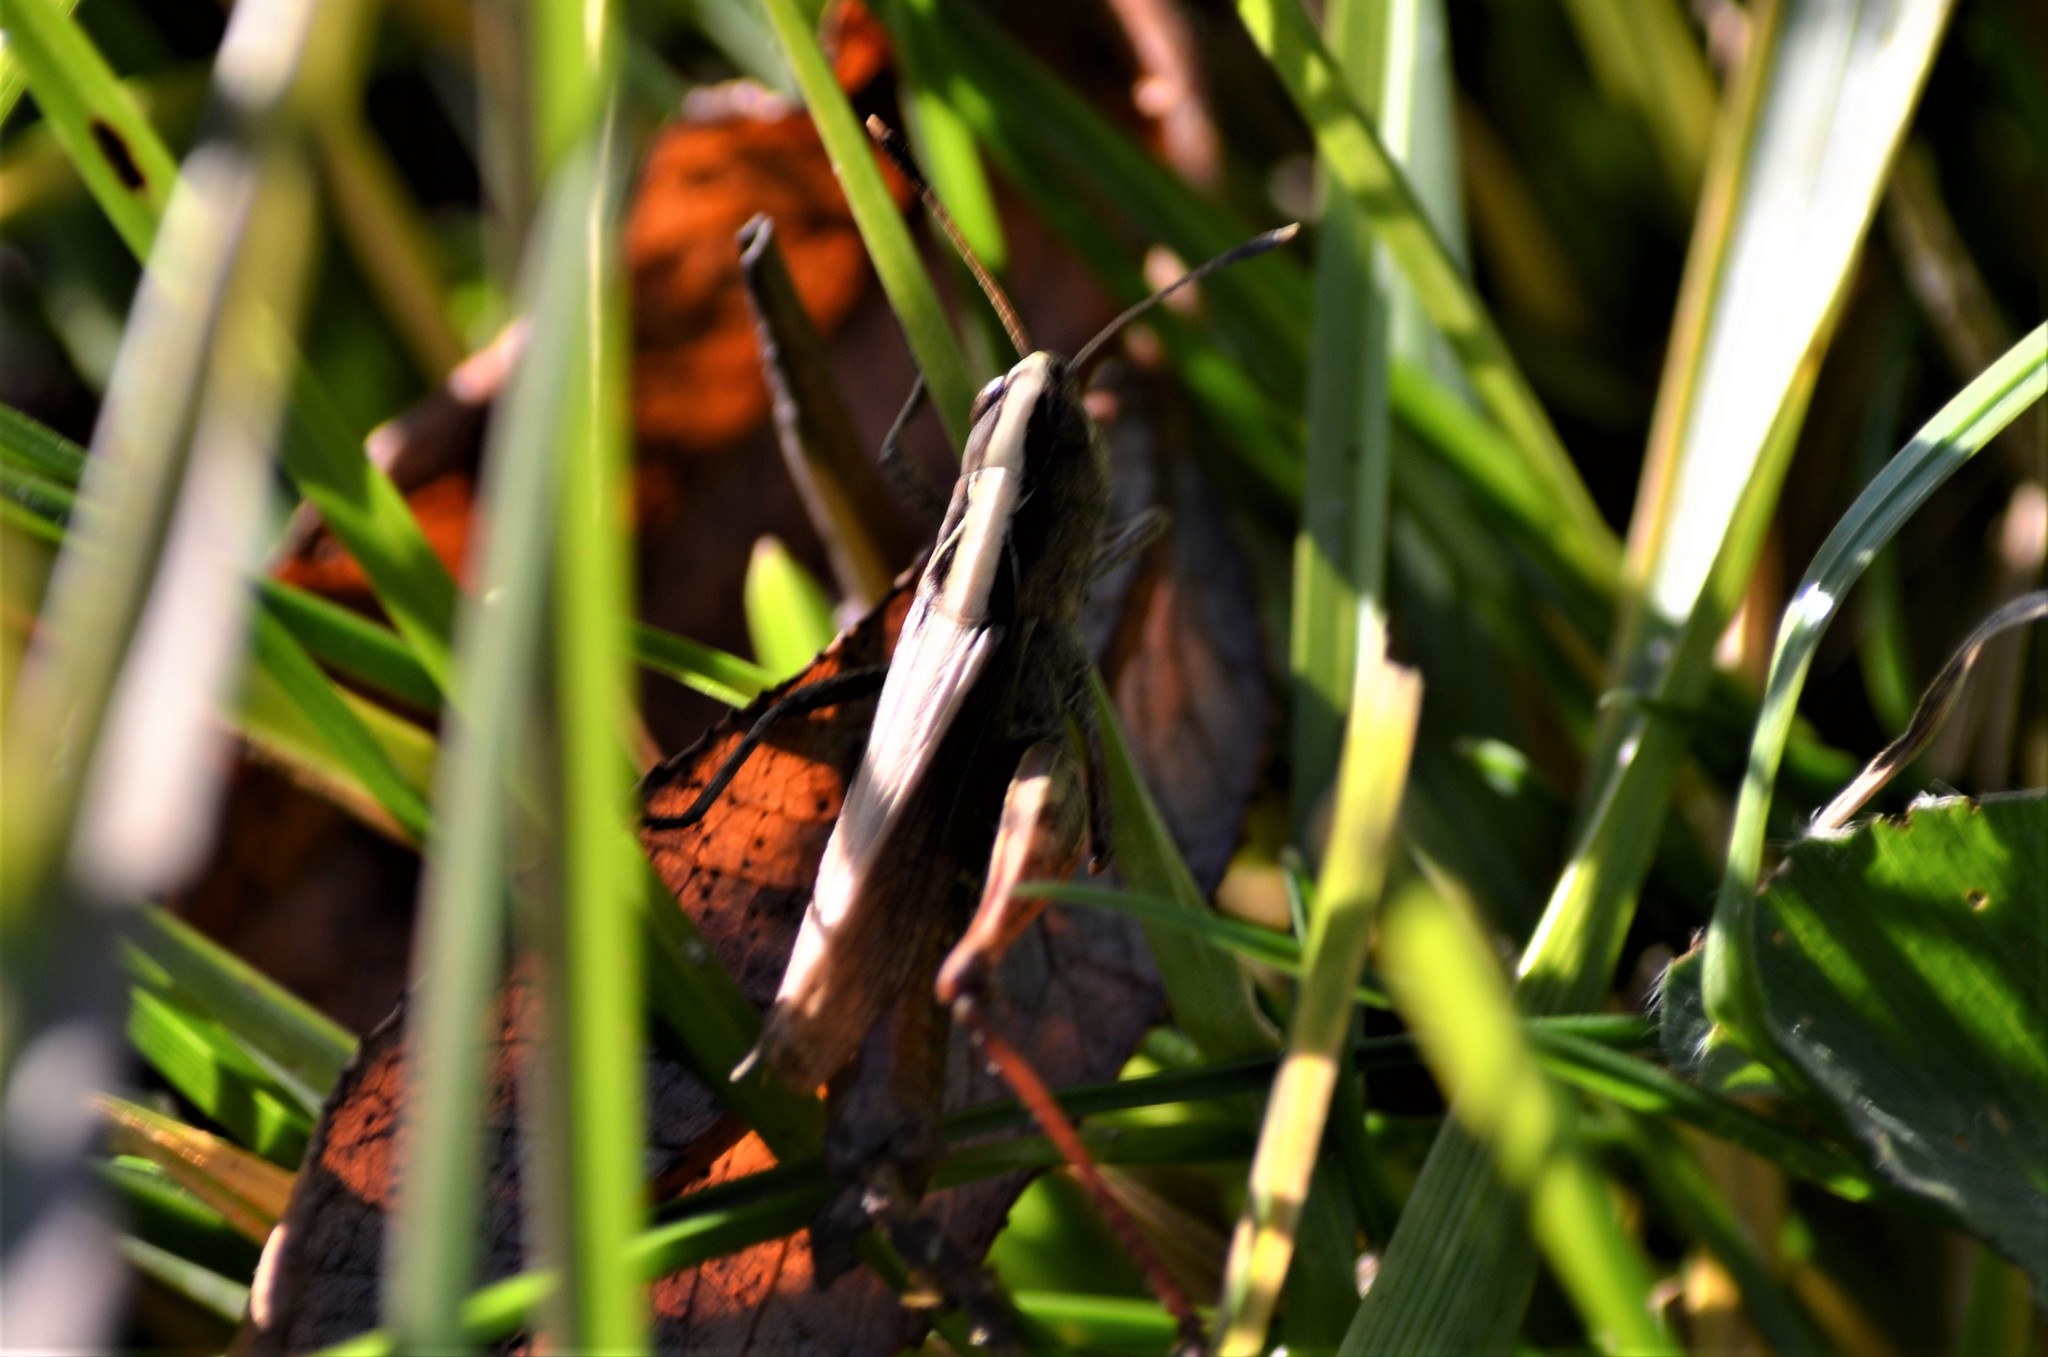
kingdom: Animalia
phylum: Arthropoda
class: Insecta
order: Orthoptera
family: Acrididae
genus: Gomphocerippus
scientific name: Gomphocerippus rufus
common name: Rufous grasshopper
